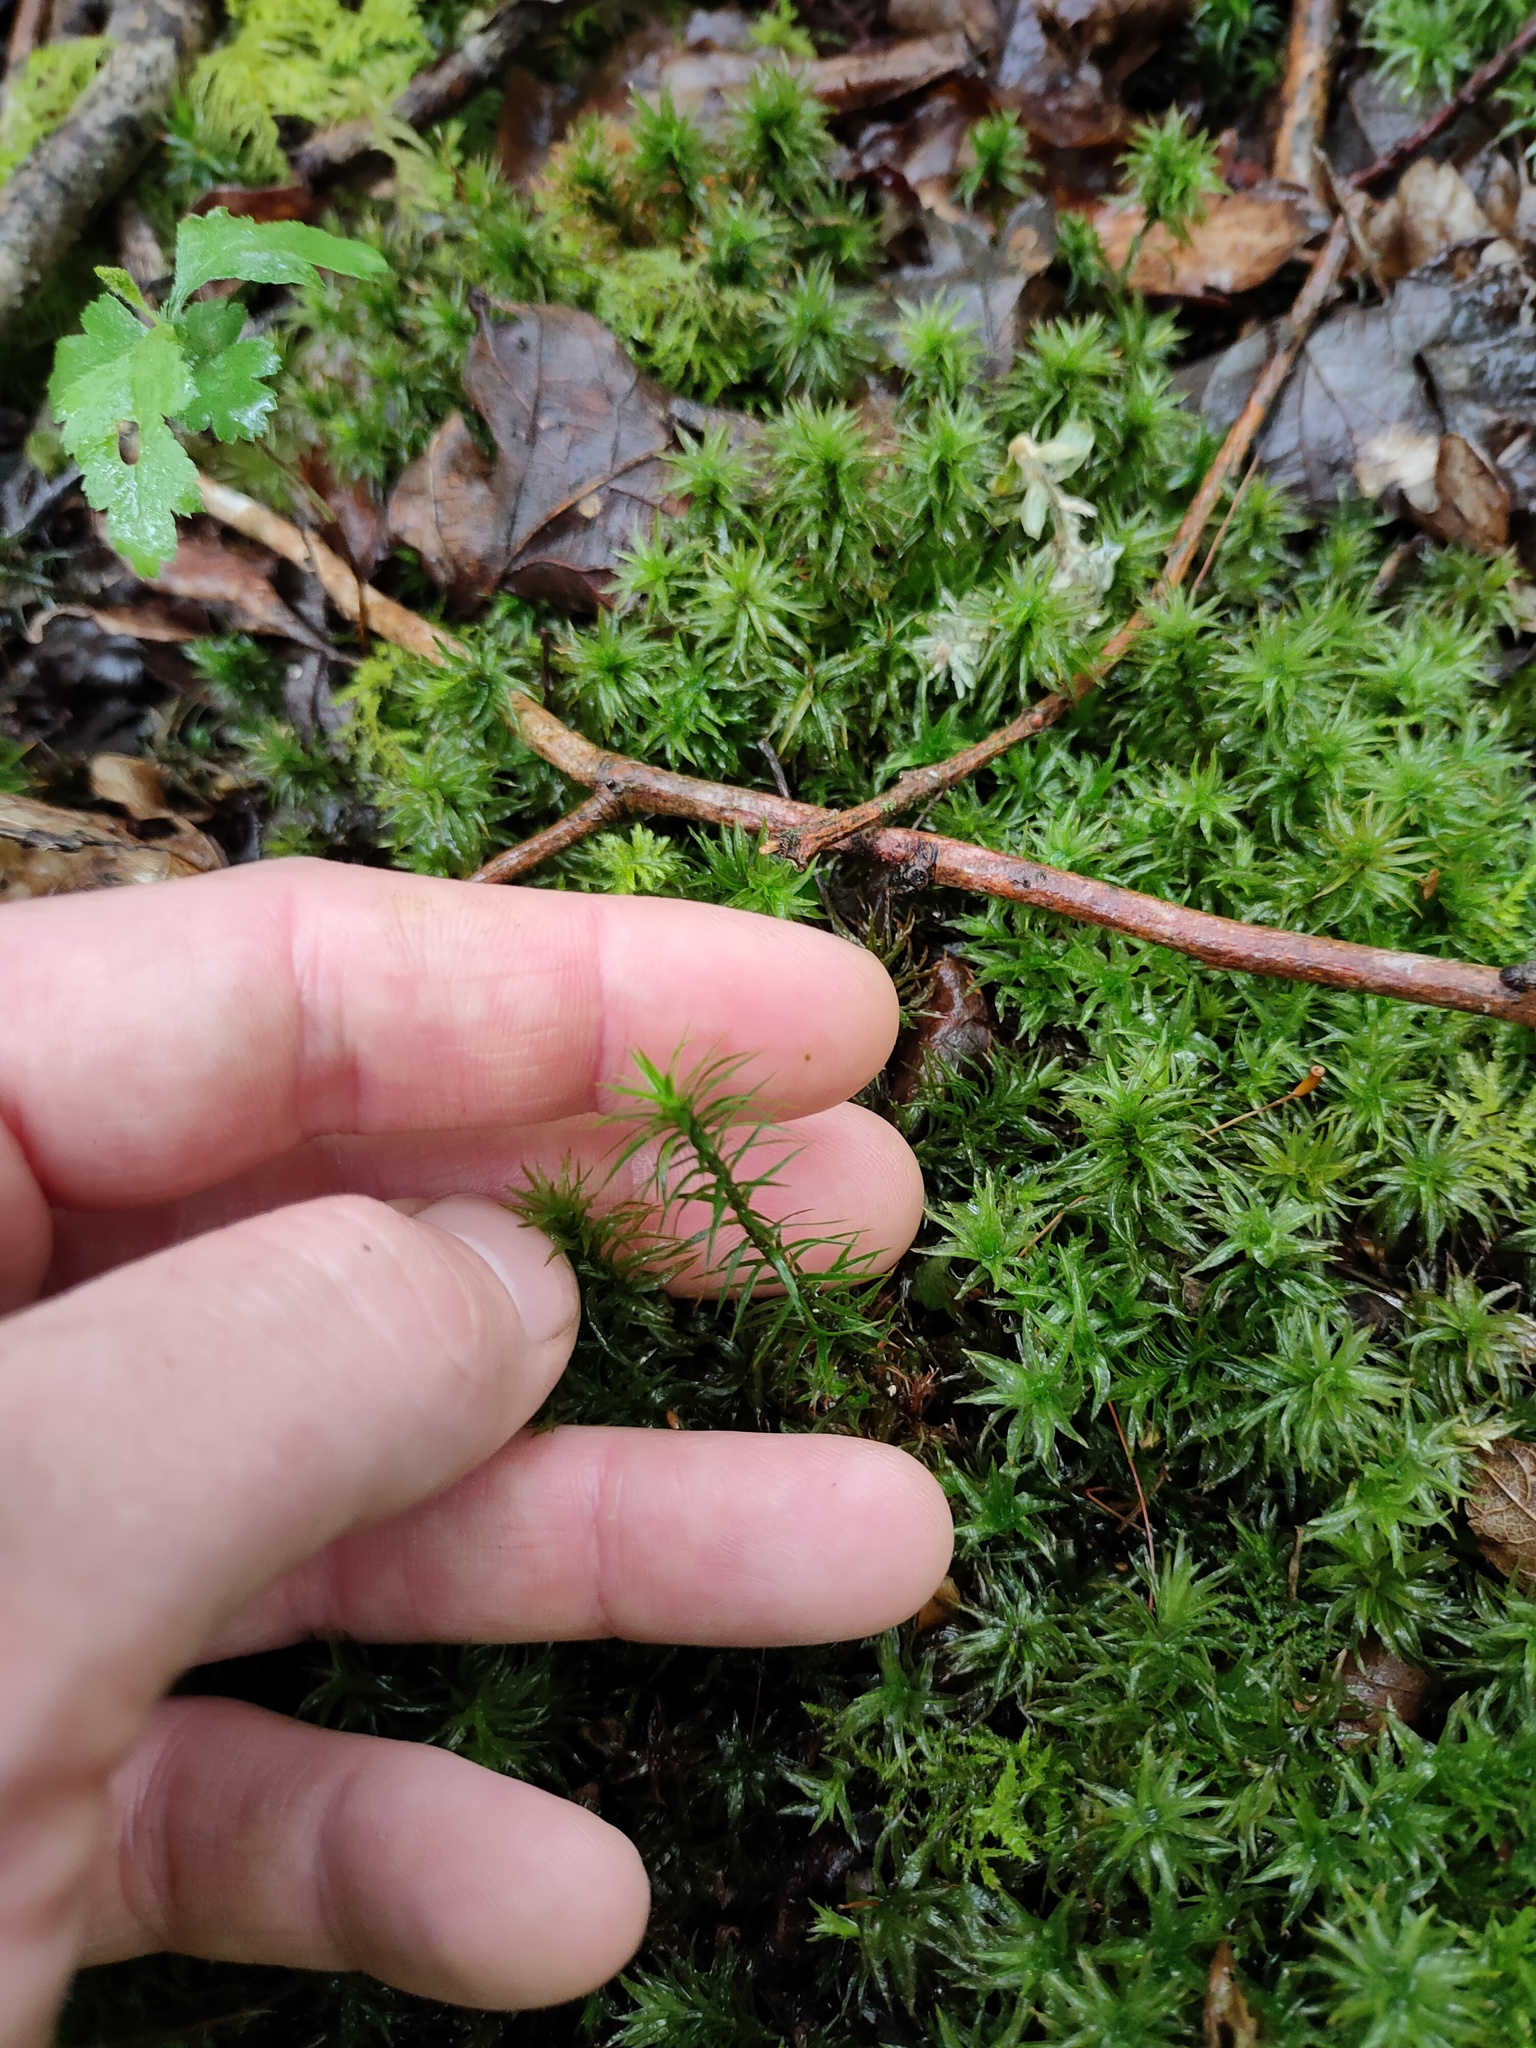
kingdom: Plantae
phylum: Bryophyta
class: Polytrichopsida
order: Polytrichales
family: Polytrichaceae
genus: Polytrichum
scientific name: Polytrichum formosum
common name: Bank haircap moss
